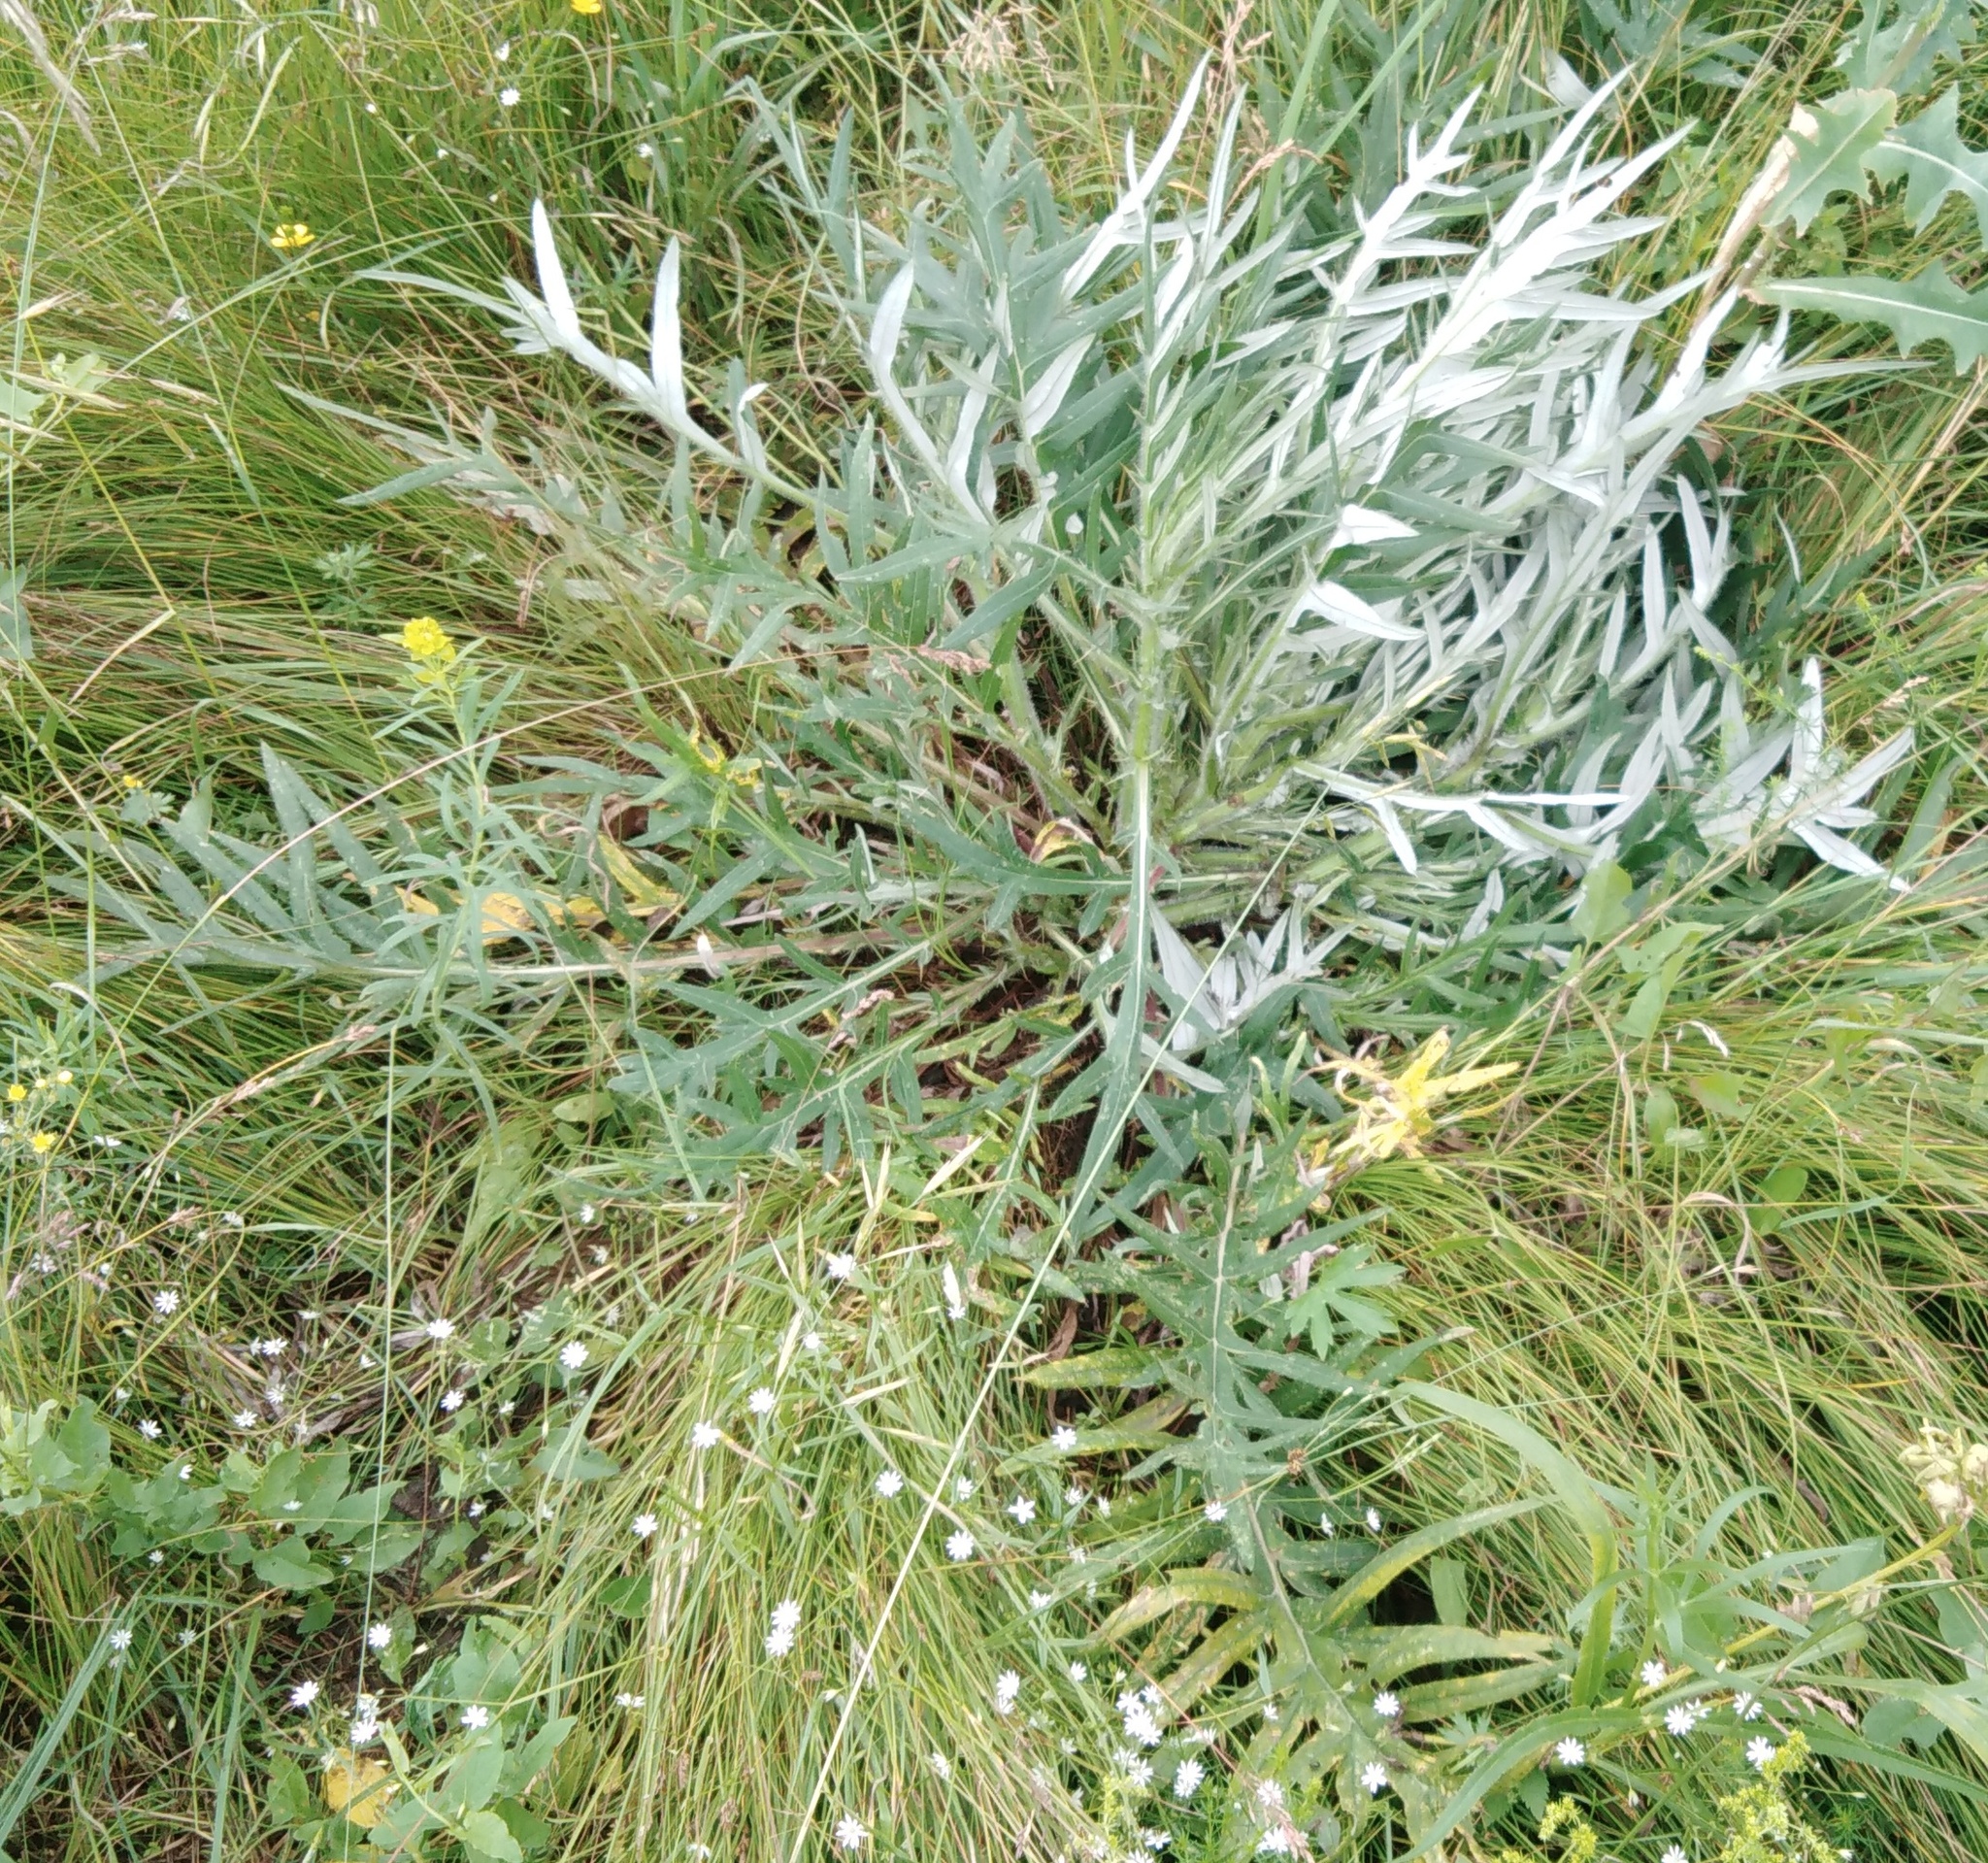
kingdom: Plantae
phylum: Tracheophyta
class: Magnoliopsida
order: Asterales
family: Asteraceae
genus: Lophiolepis
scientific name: Lophiolepis decussata
